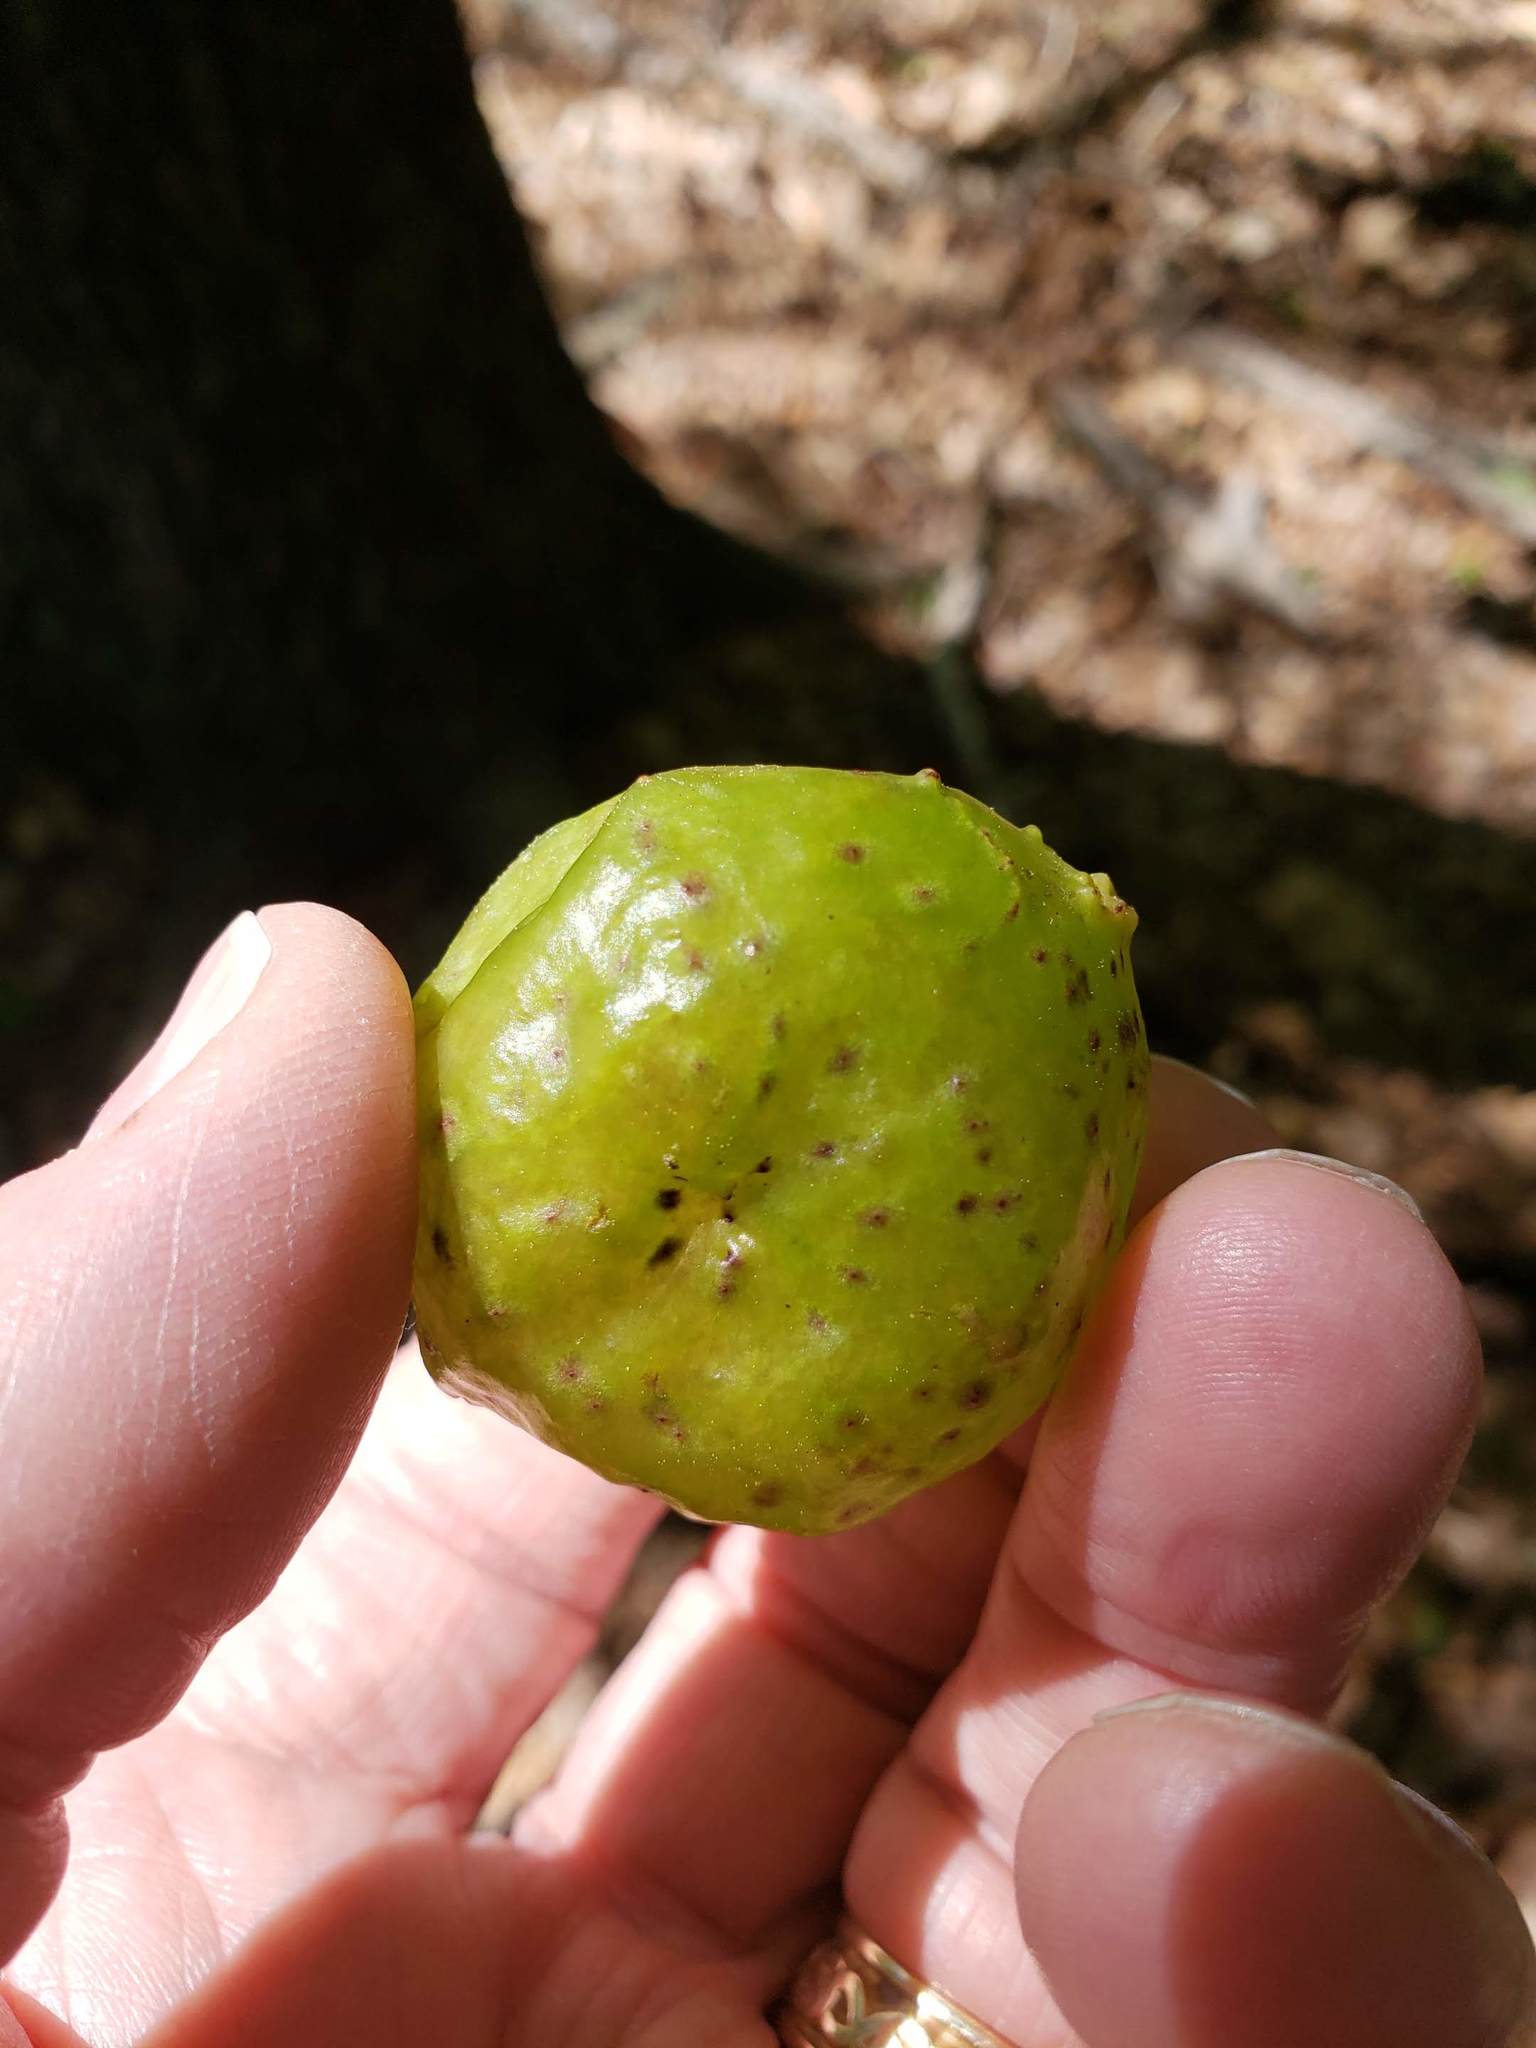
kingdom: Animalia
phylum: Arthropoda
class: Insecta
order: Hymenoptera
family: Cynipidae
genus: Amphibolips
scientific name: Amphibolips
